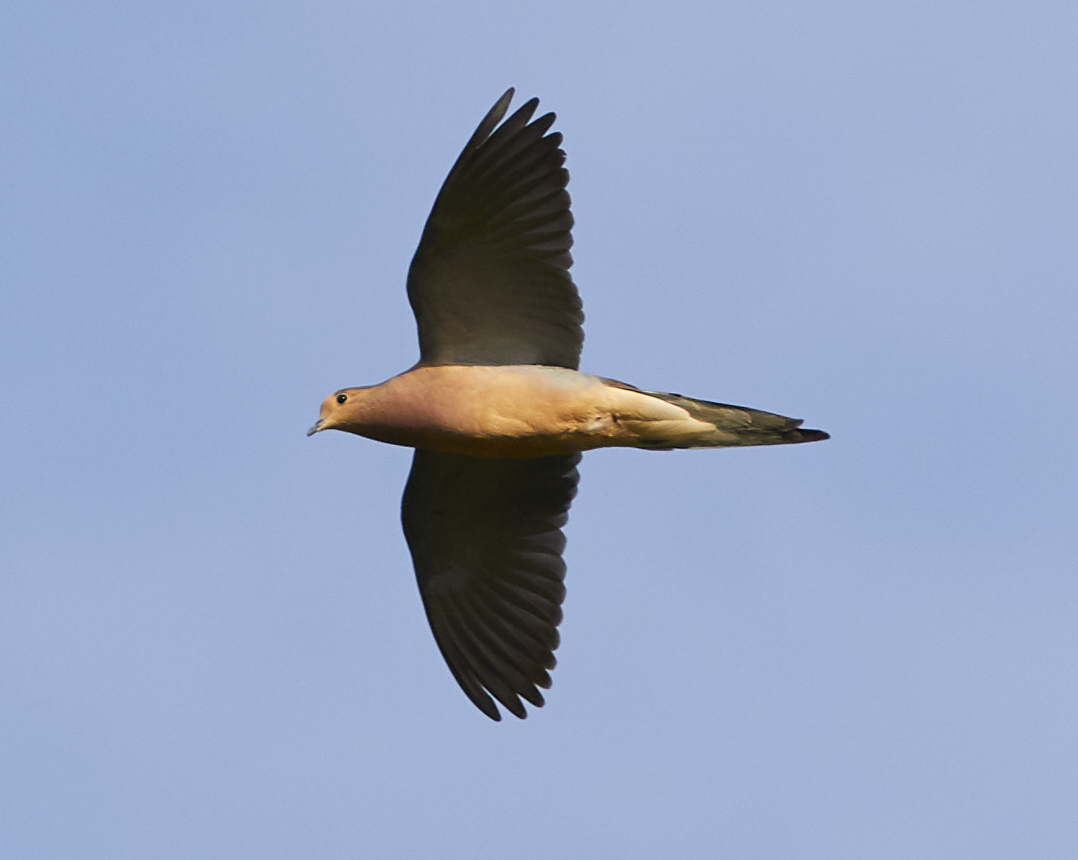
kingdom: Animalia
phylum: Chordata
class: Aves
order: Columbiformes
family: Columbidae
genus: Zenaida
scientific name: Zenaida macroura
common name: Mourning dove
